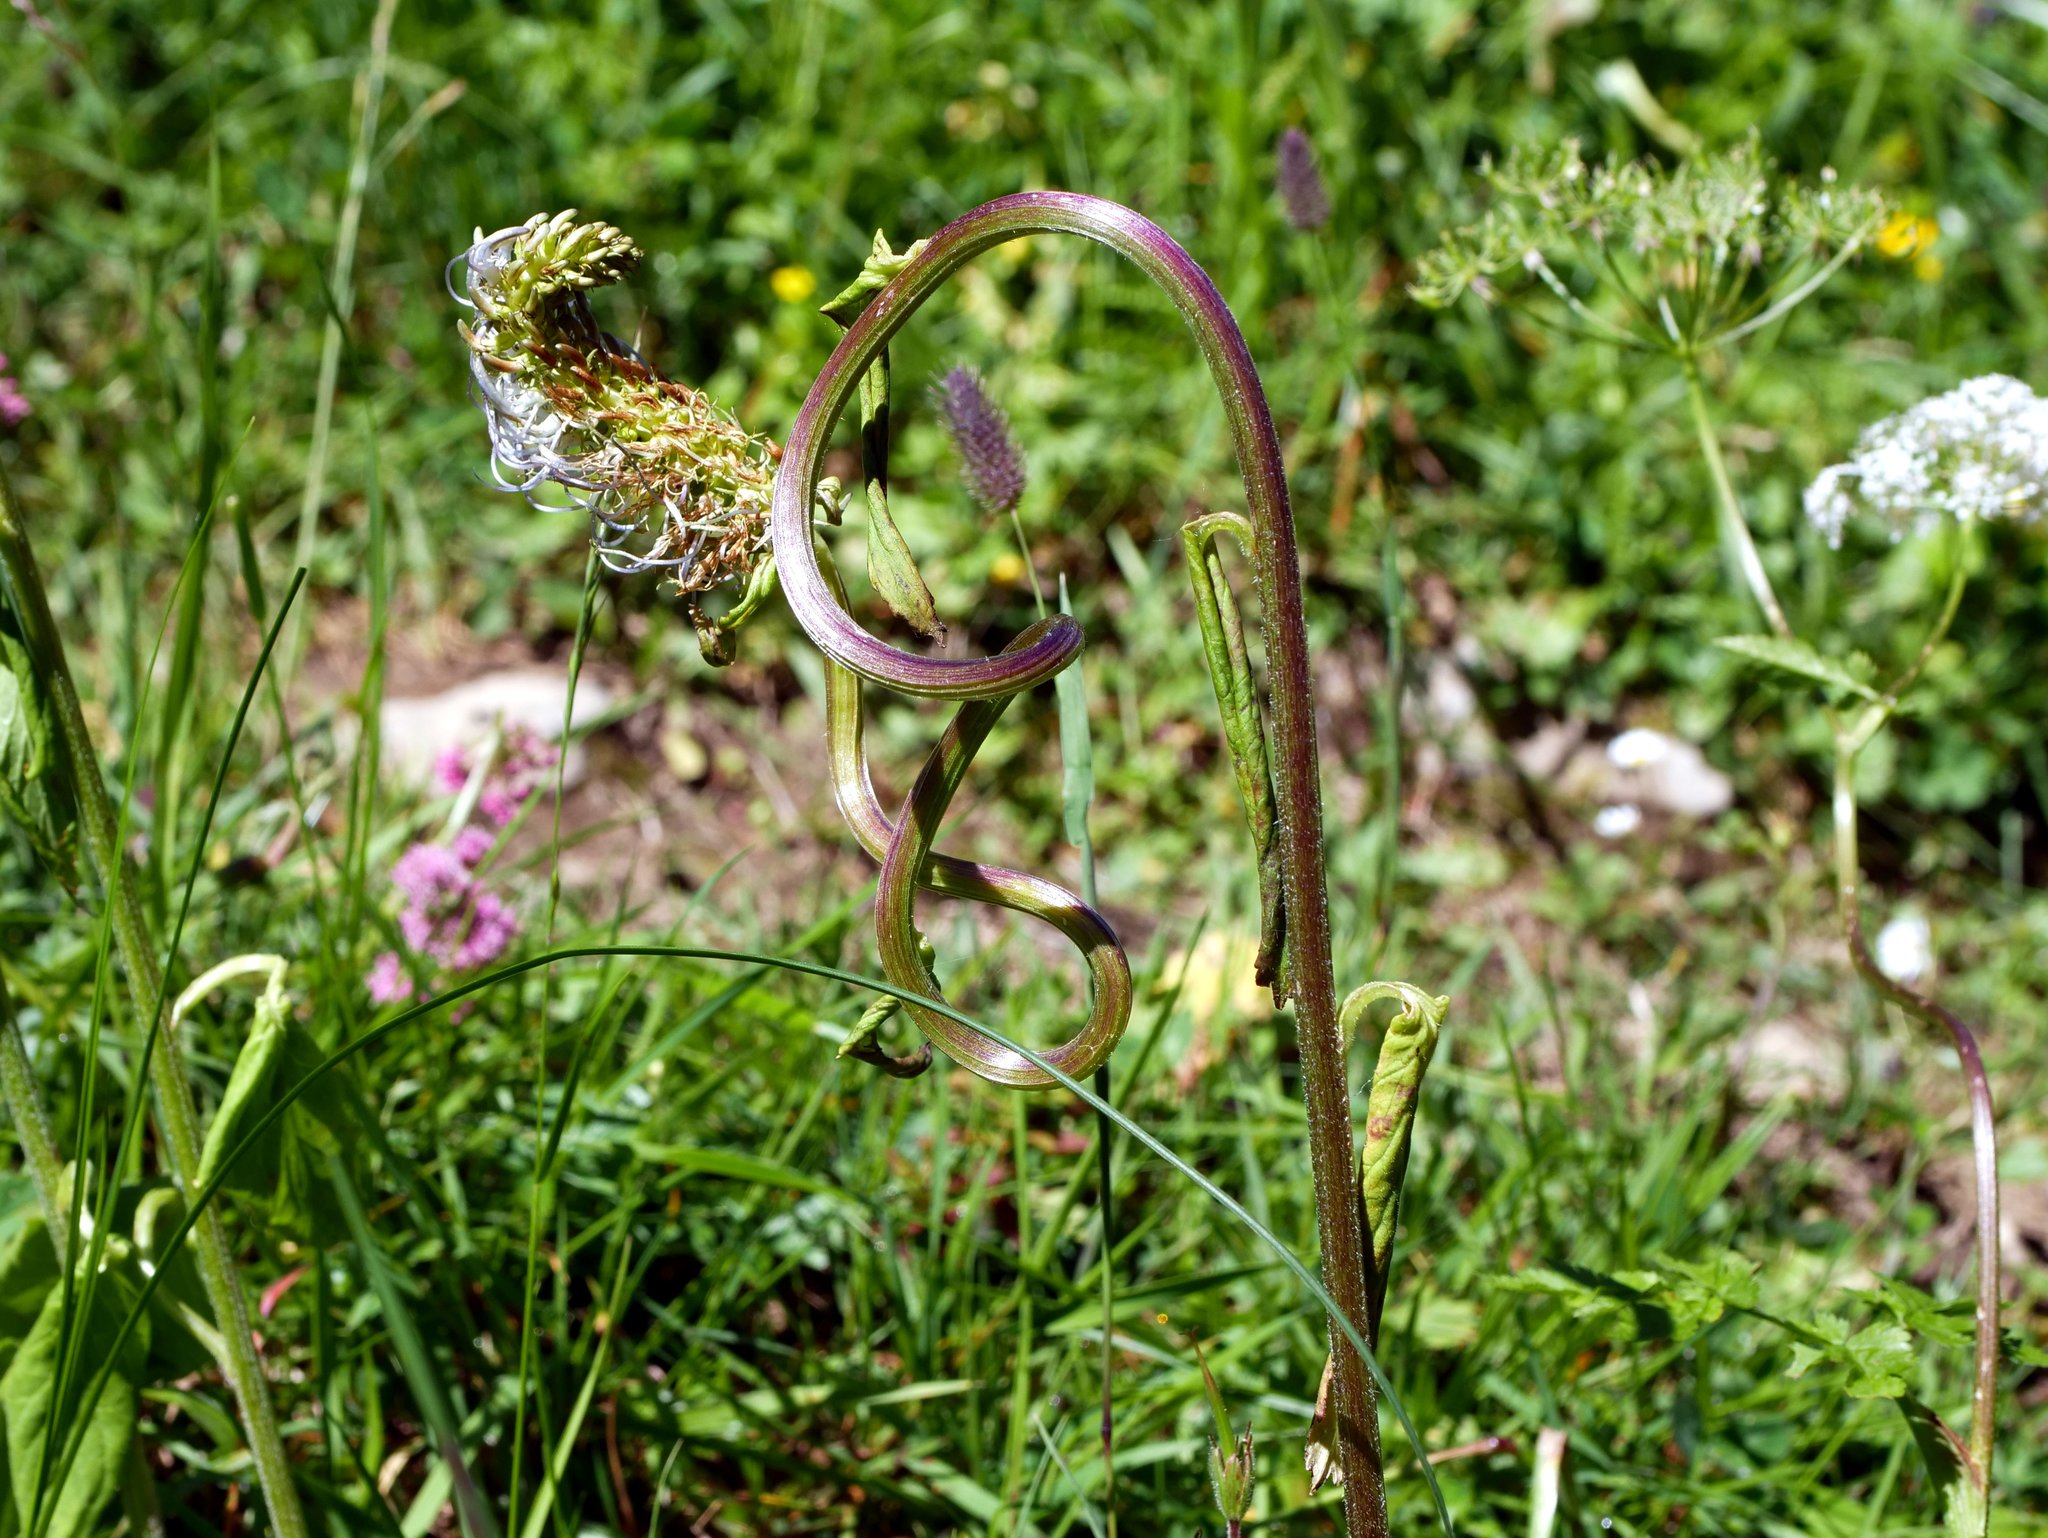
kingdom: Plantae
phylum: Tracheophyta
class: Magnoliopsida
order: Asterales
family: Campanulaceae
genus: Phyteuma
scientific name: Phyteuma spicatum
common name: Spiked rampion
